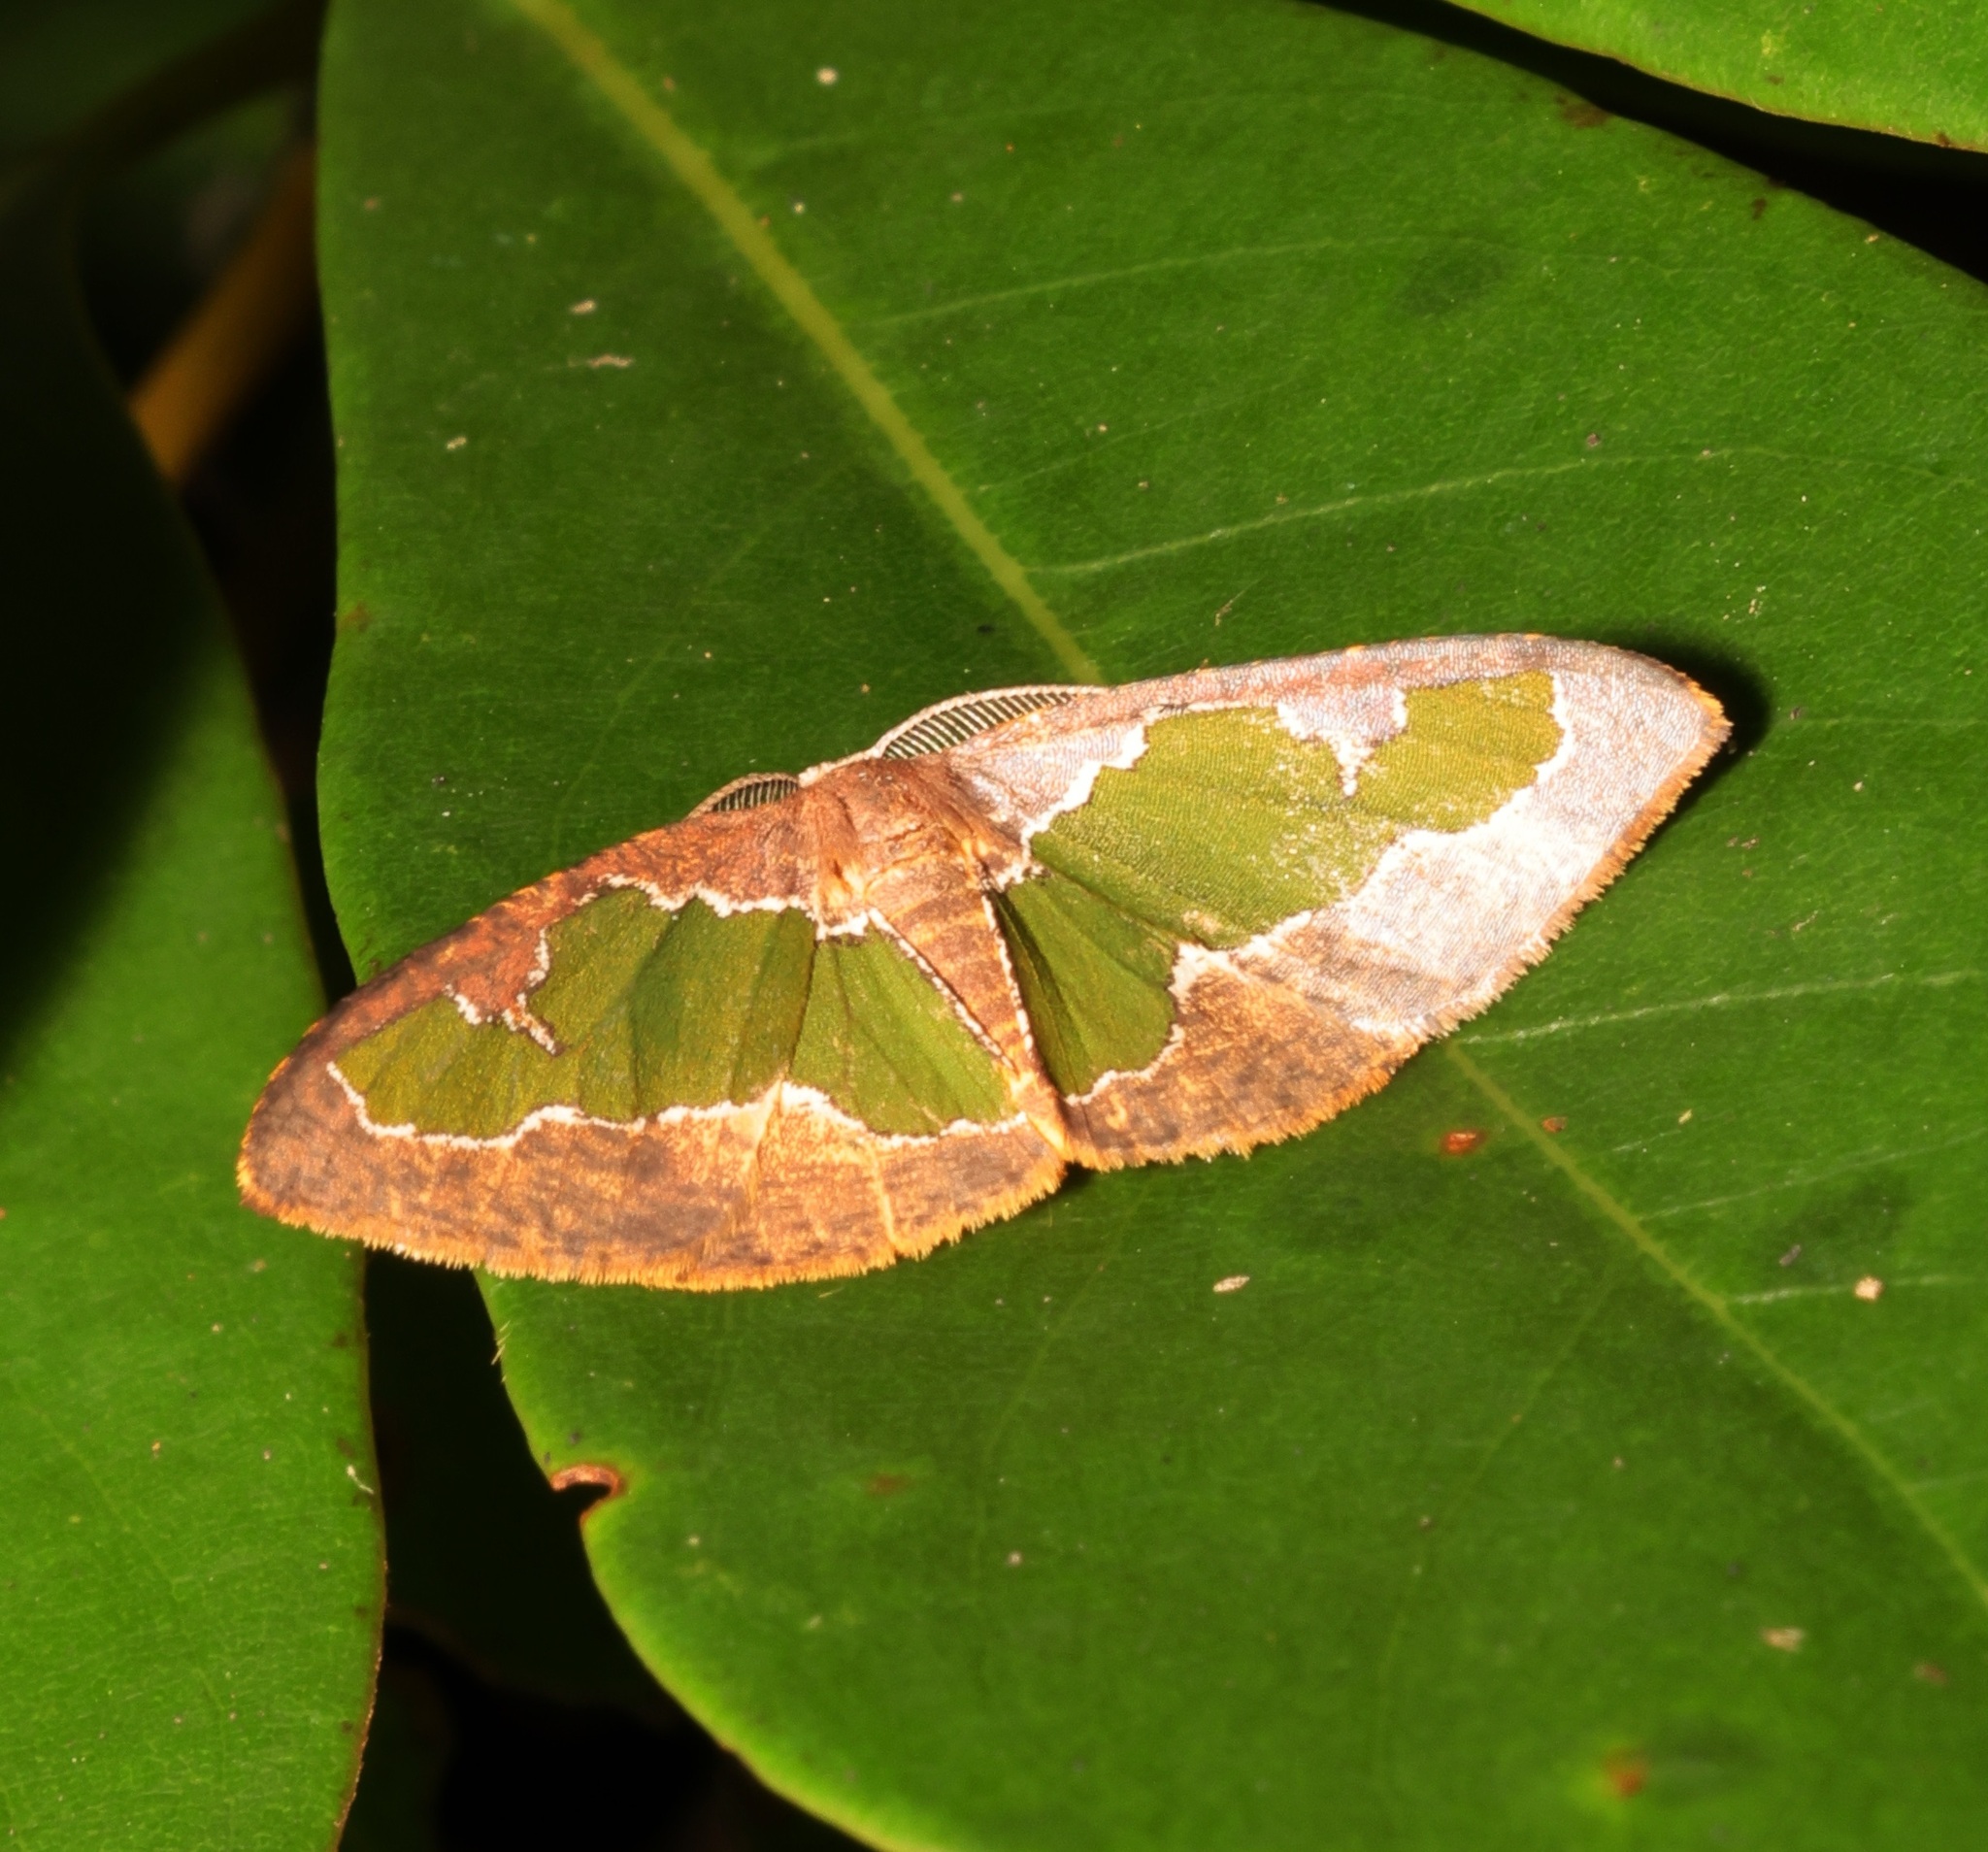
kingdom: Animalia
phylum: Arthropoda
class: Insecta
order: Lepidoptera
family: Geometridae
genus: Celenna
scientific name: Celenna festivaria
